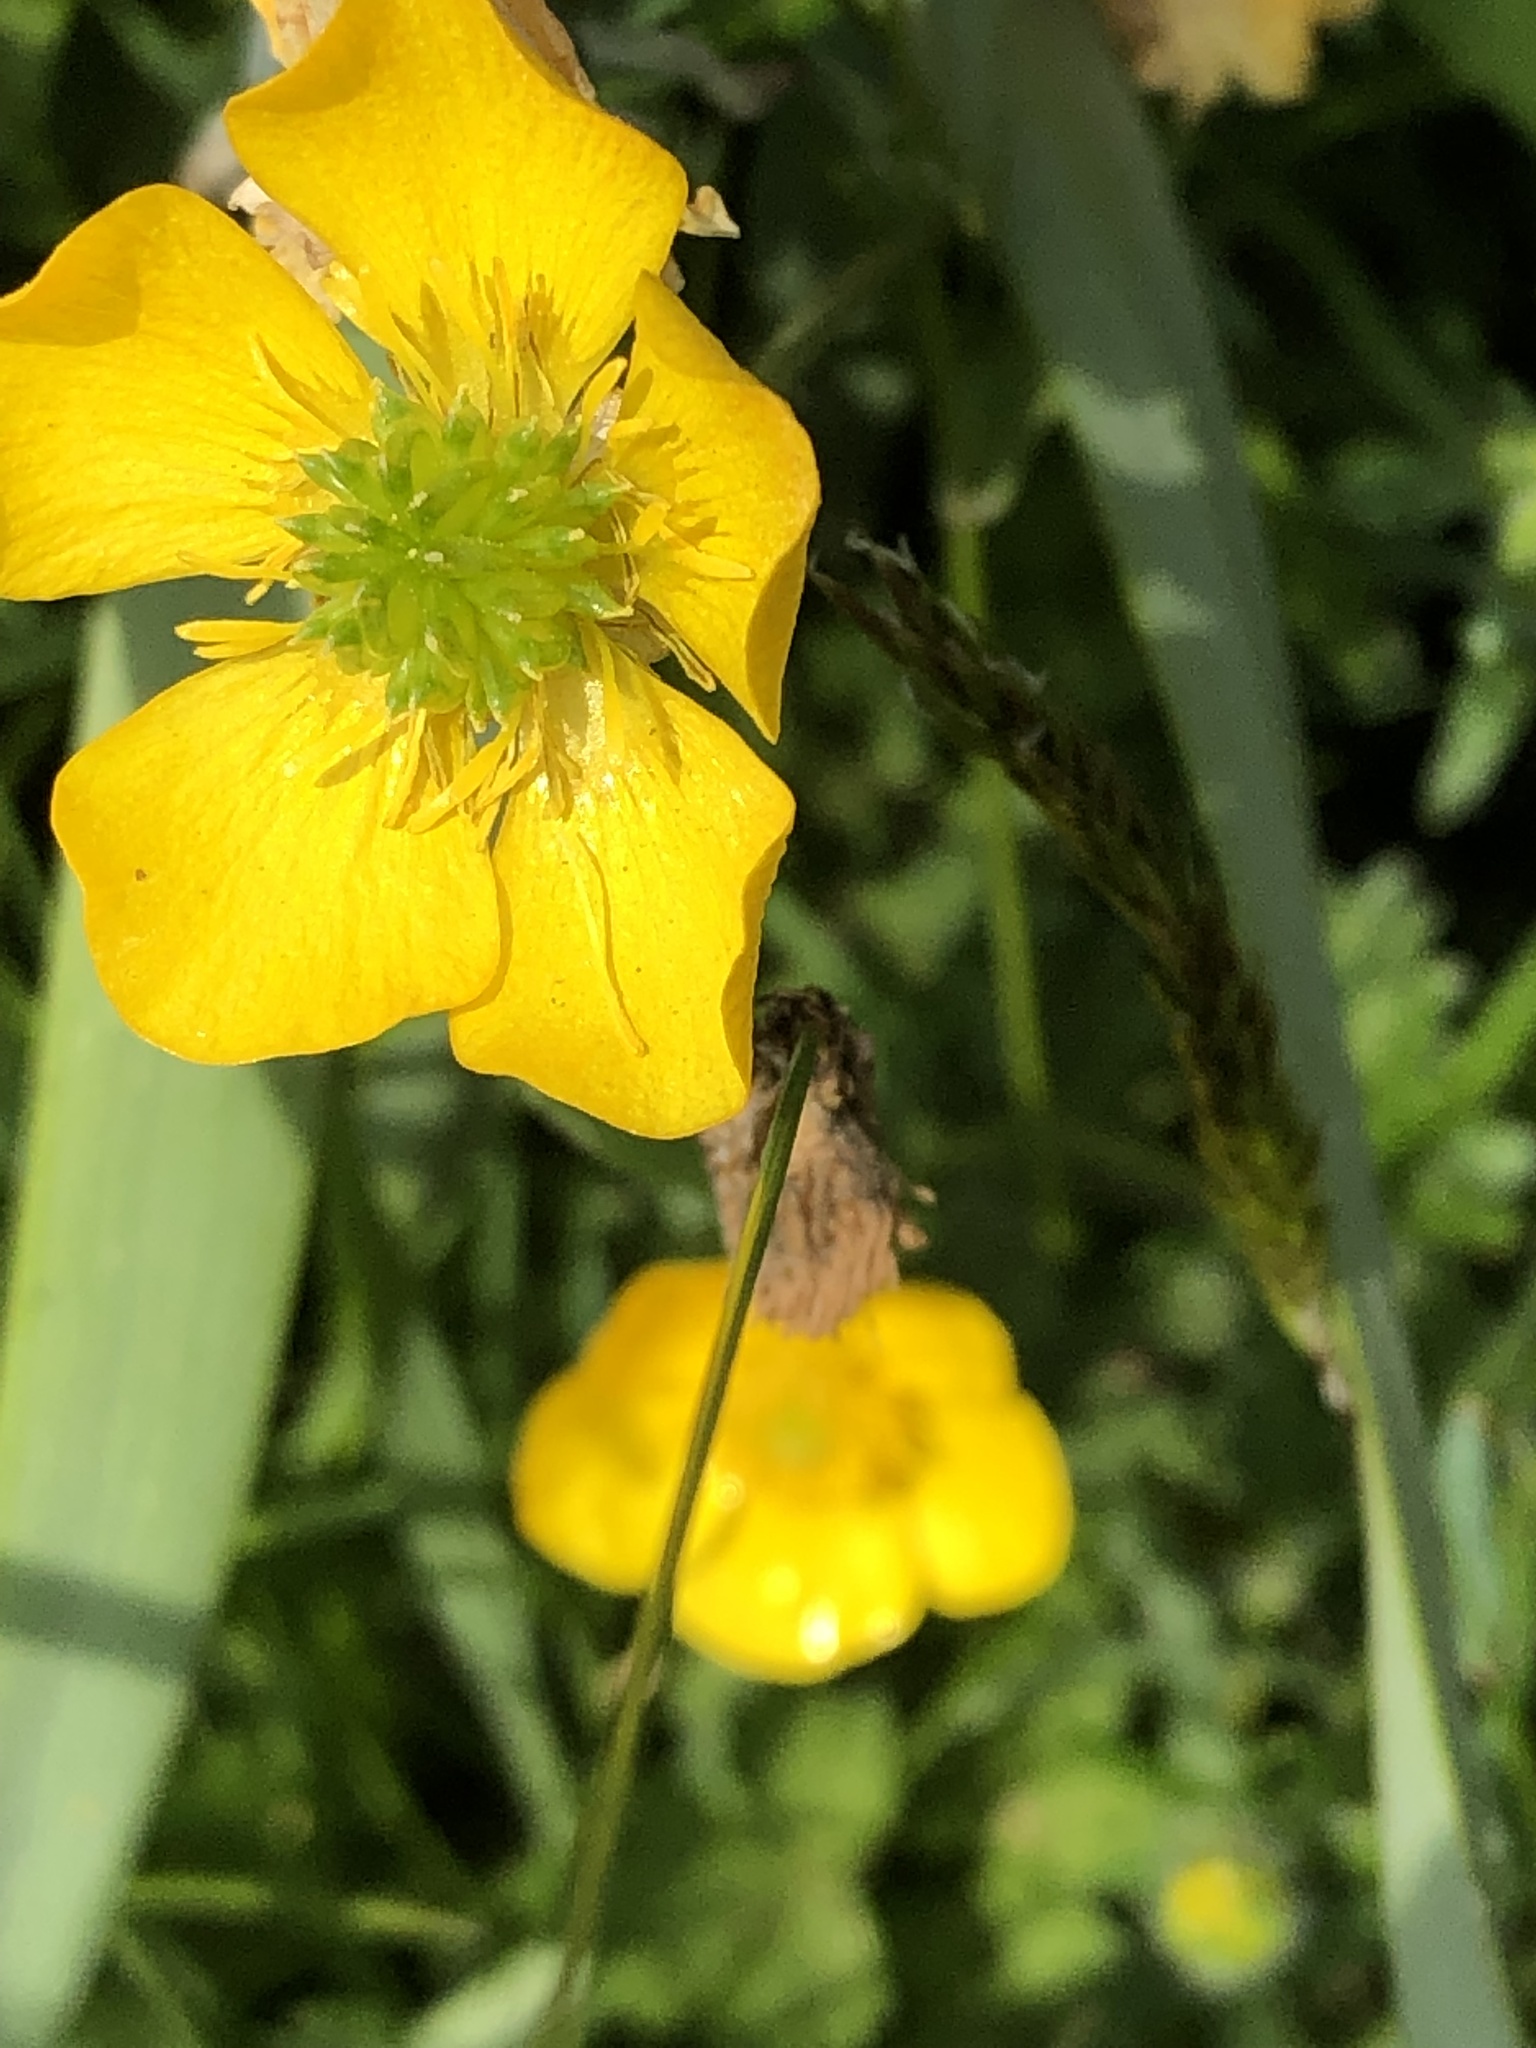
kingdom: Plantae
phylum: Tracheophyta
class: Magnoliopsida
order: Ranunculales
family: Ranunculaceae
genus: Ranunculus
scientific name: Ranunculus bulbosus
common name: Bulbous buttercup
